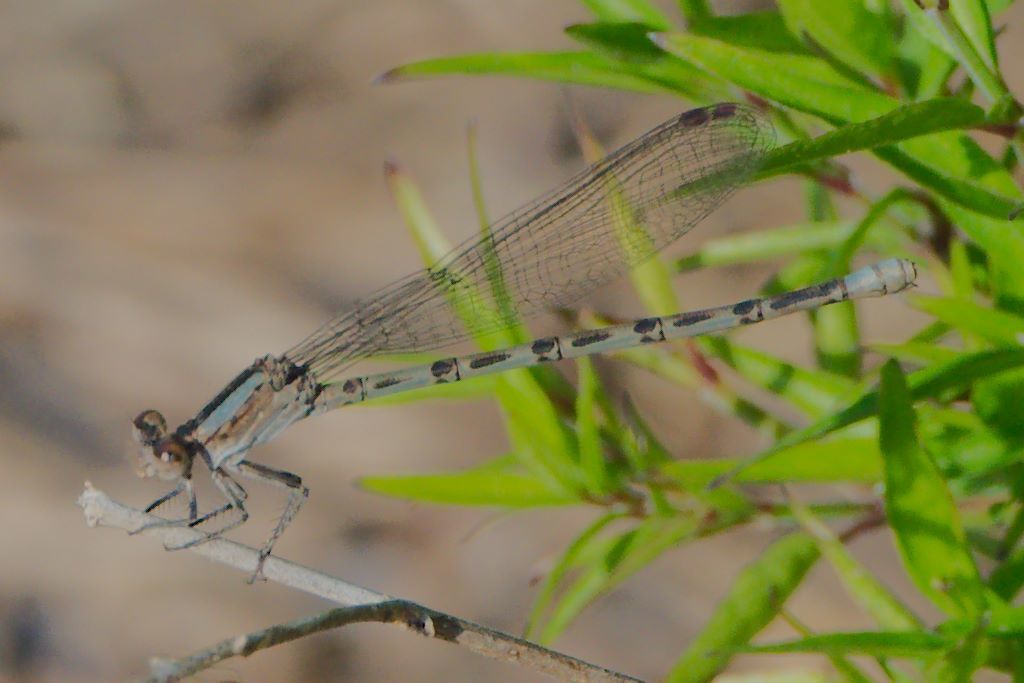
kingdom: Animalia
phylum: Arthropoda
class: Insecta
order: Odonata
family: Coenagrionidae
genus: Argia
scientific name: Argia immunda
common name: Kiowa dancer
